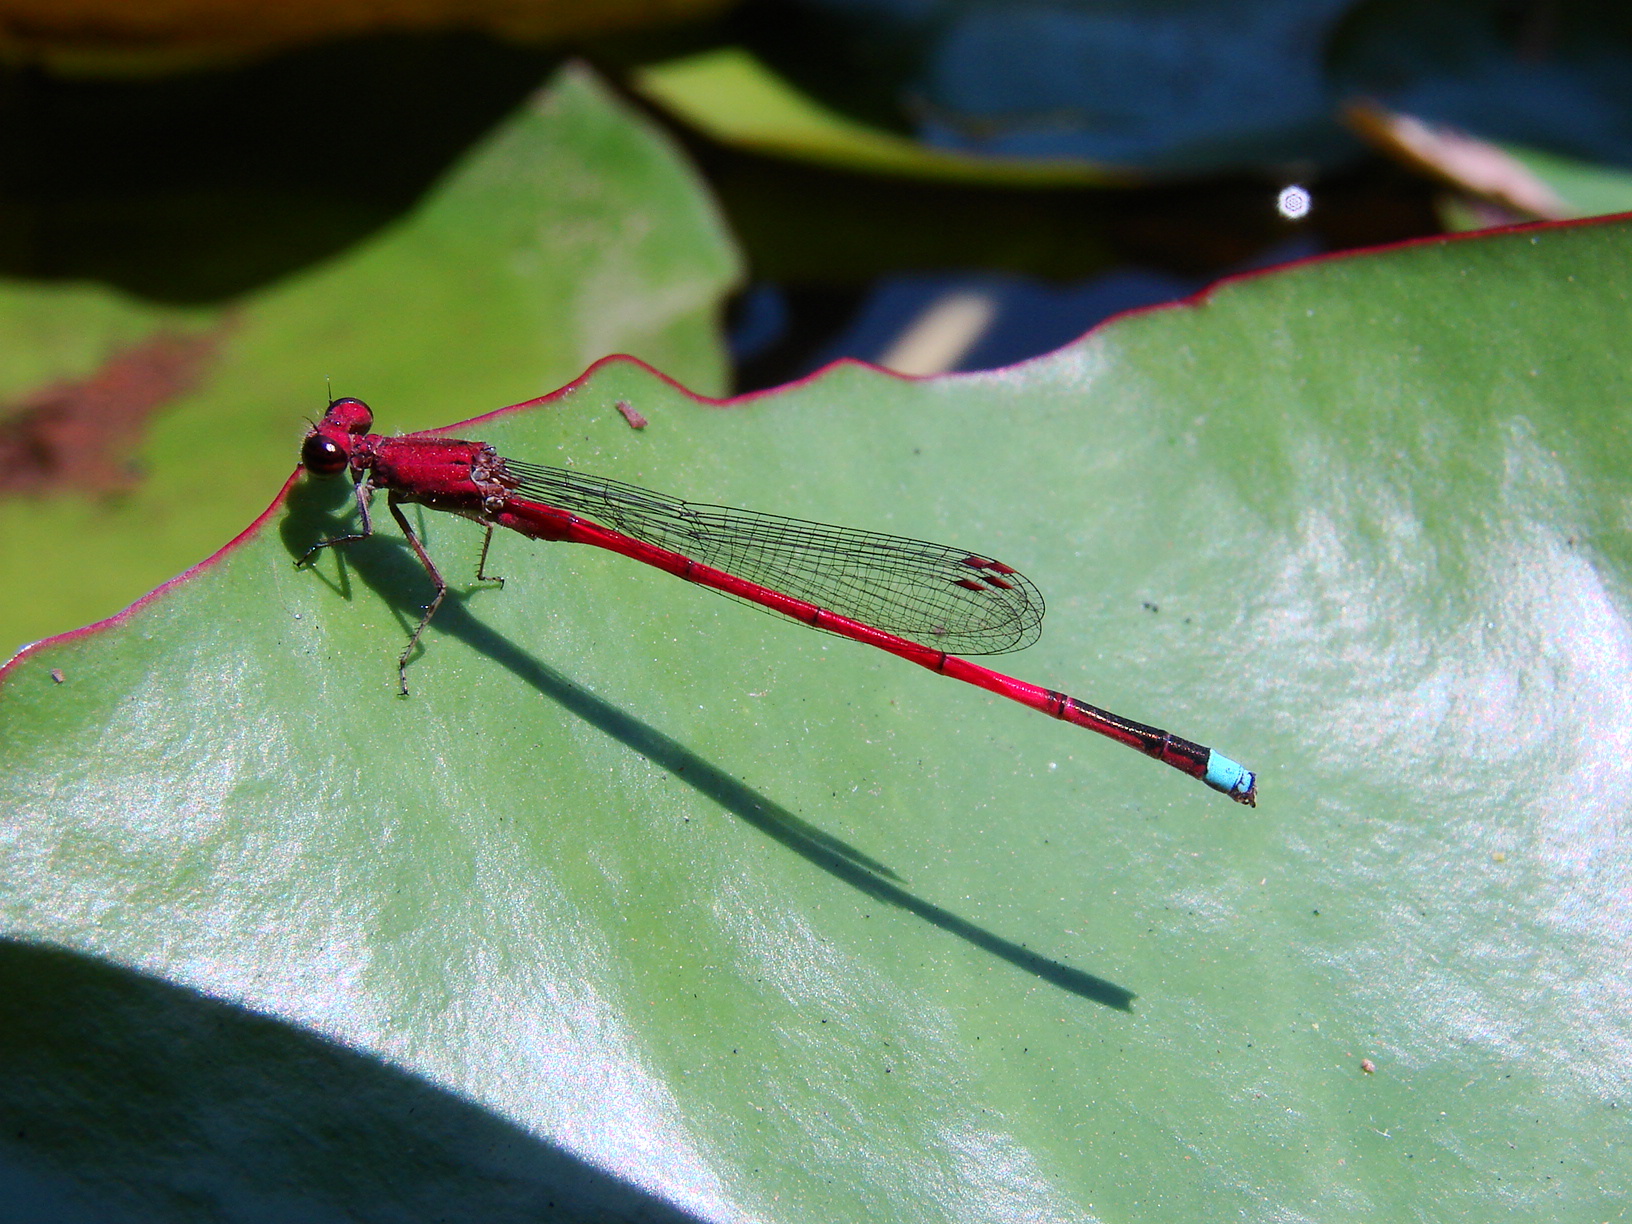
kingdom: Animalia
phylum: Arthropoda
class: Insecta
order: Odonata
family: Coenagrionidae
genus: Oxyagrion
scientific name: Oxyagrion terminale
